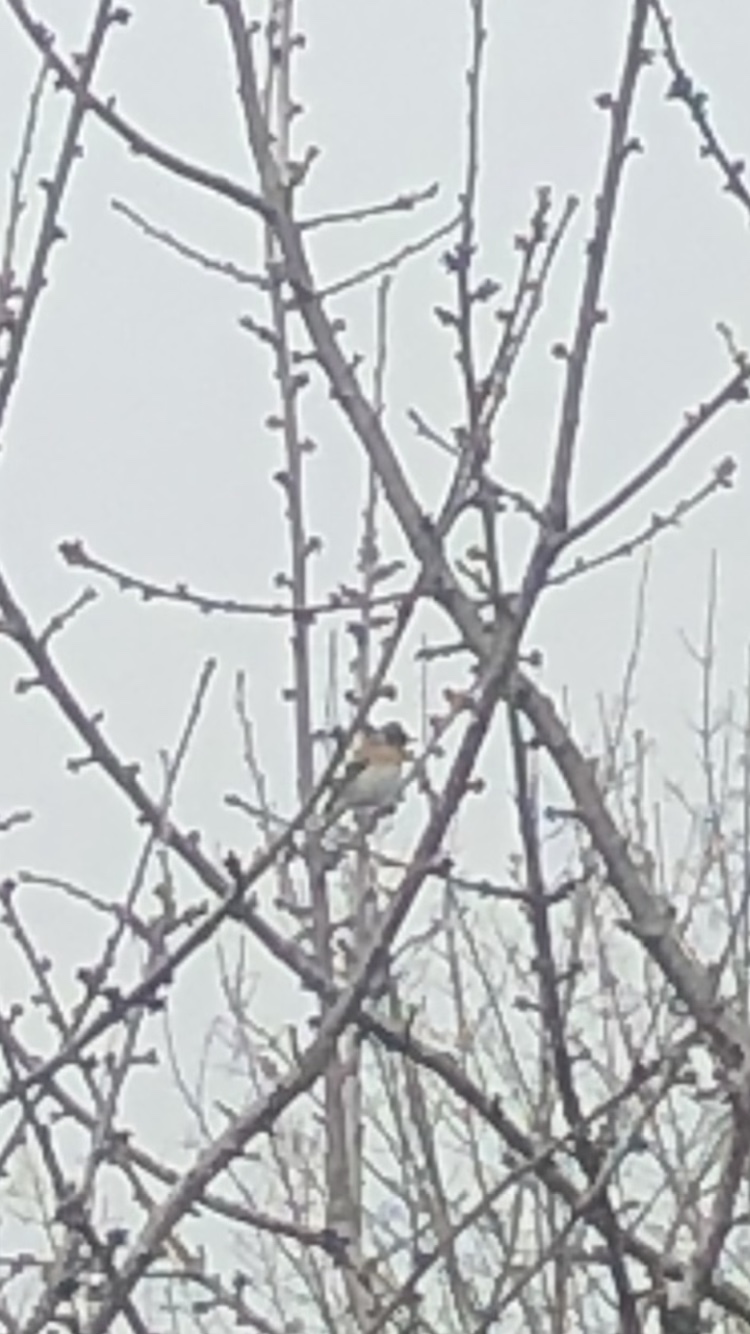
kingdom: Animalia
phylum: Chordata
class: Aves
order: Passeriformes
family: Fringillidae
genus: Fringilla
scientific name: Fringilla montifringilla
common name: Brambling
